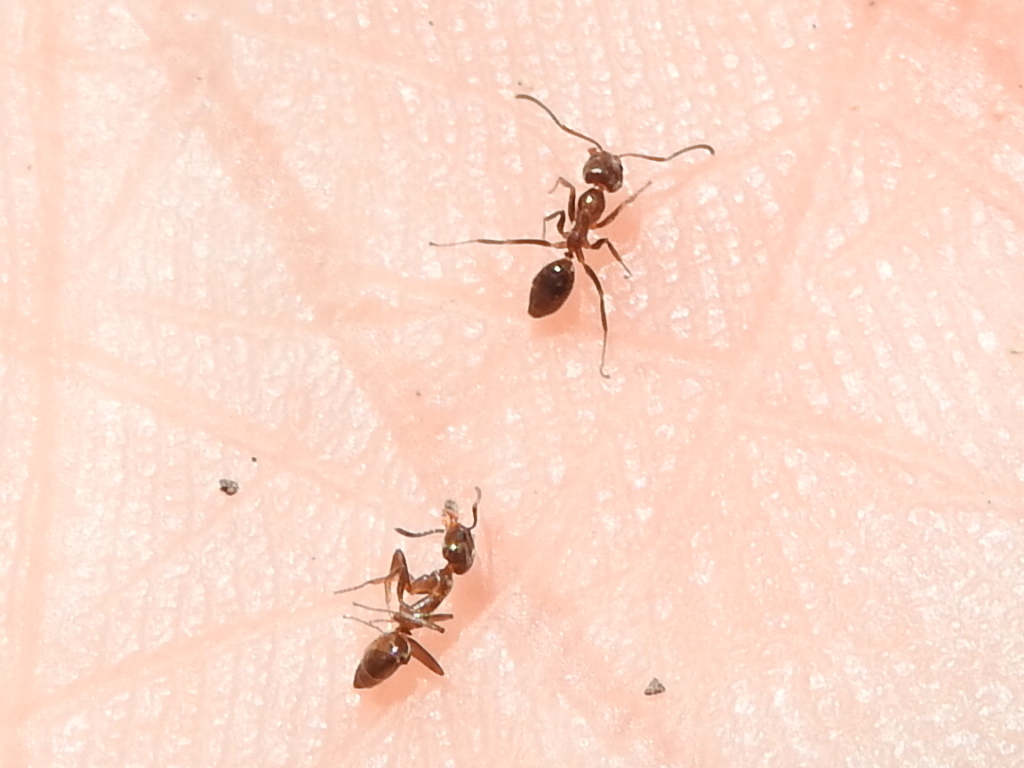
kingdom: Animalia
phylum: Arthropoda
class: Insecta
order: Hymenoptera
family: Formicidae
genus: Linepithema
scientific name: Linepithema humile
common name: Argentine ant
